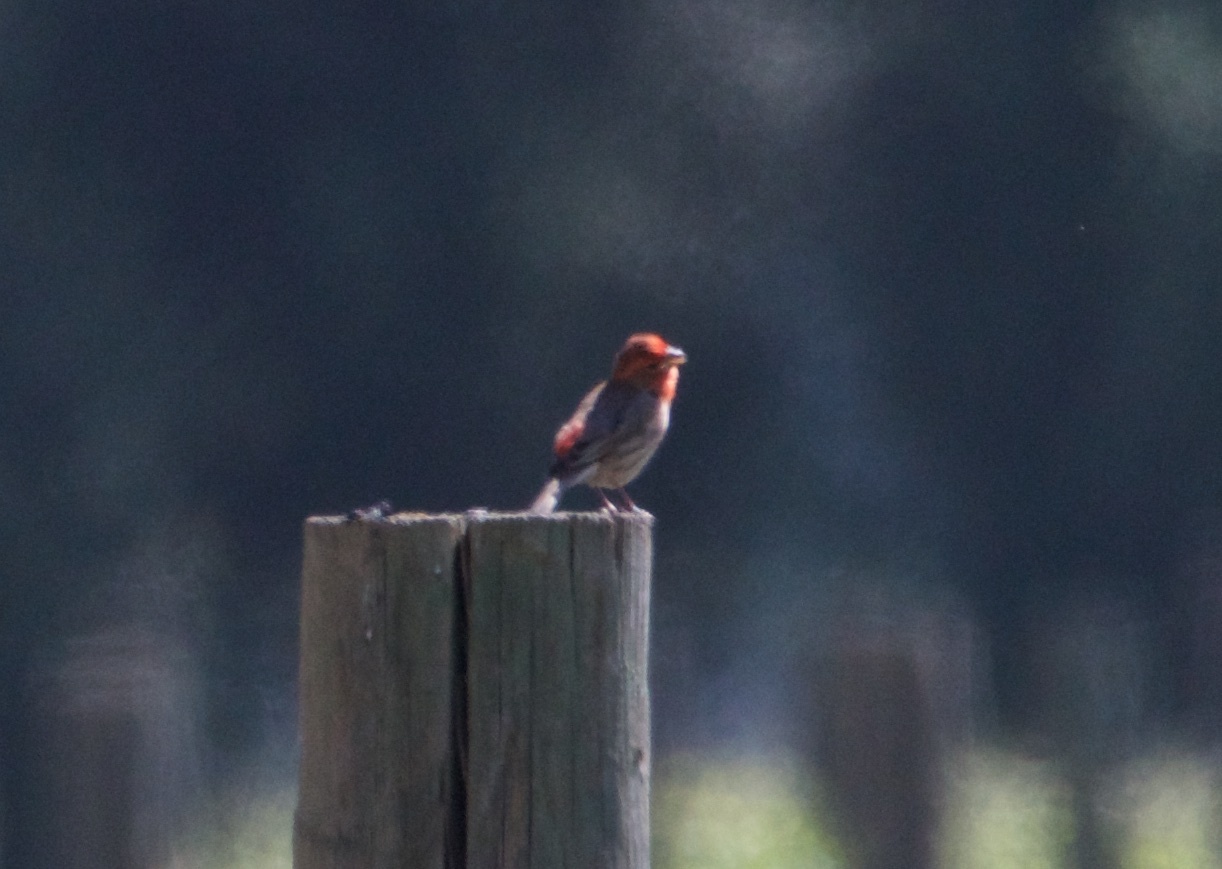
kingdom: Animalia
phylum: Chordata
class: Aves
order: Passeriformes
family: Fringillidae
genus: Haemorhous
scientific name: Haemorhous mexicanus
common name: House finch
